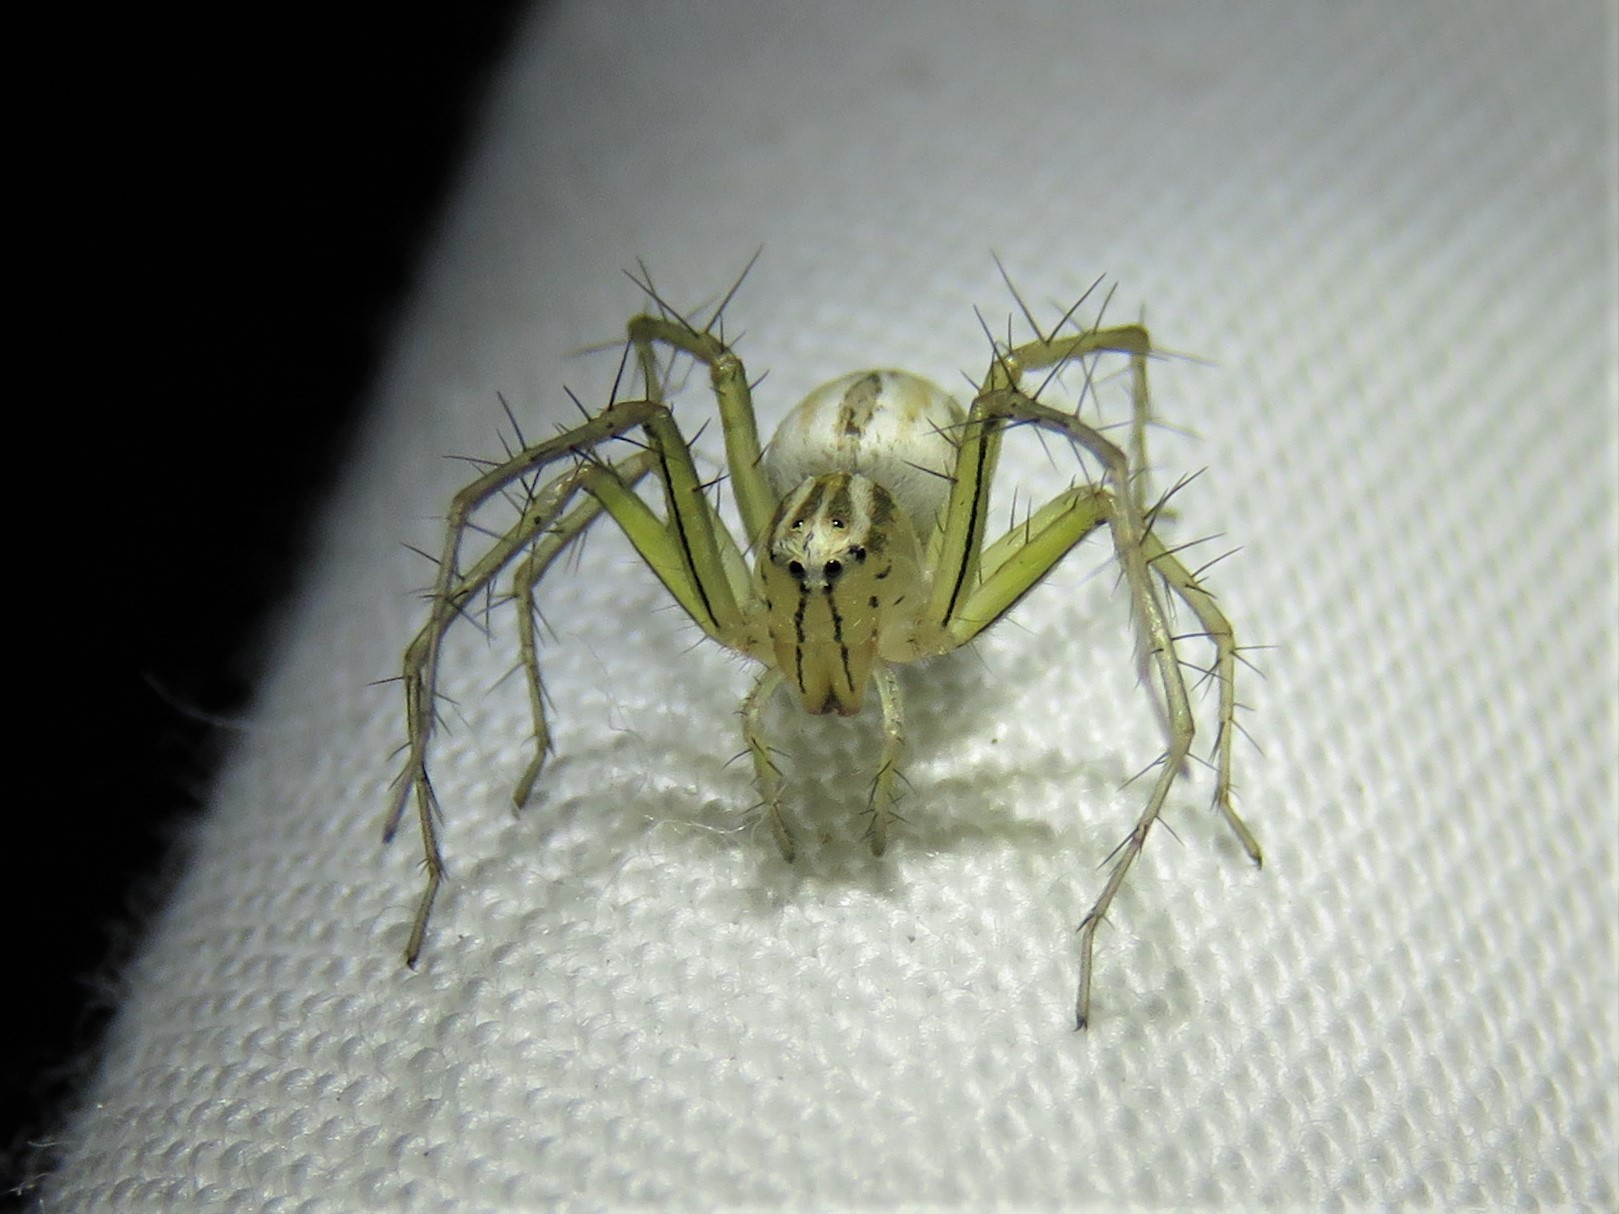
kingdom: Animalia
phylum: Arthropoda
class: Arachnida
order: Araneae
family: Oxyopidae
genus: Oxyopes
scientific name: Oxyopes salticus
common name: Lynx spiders
